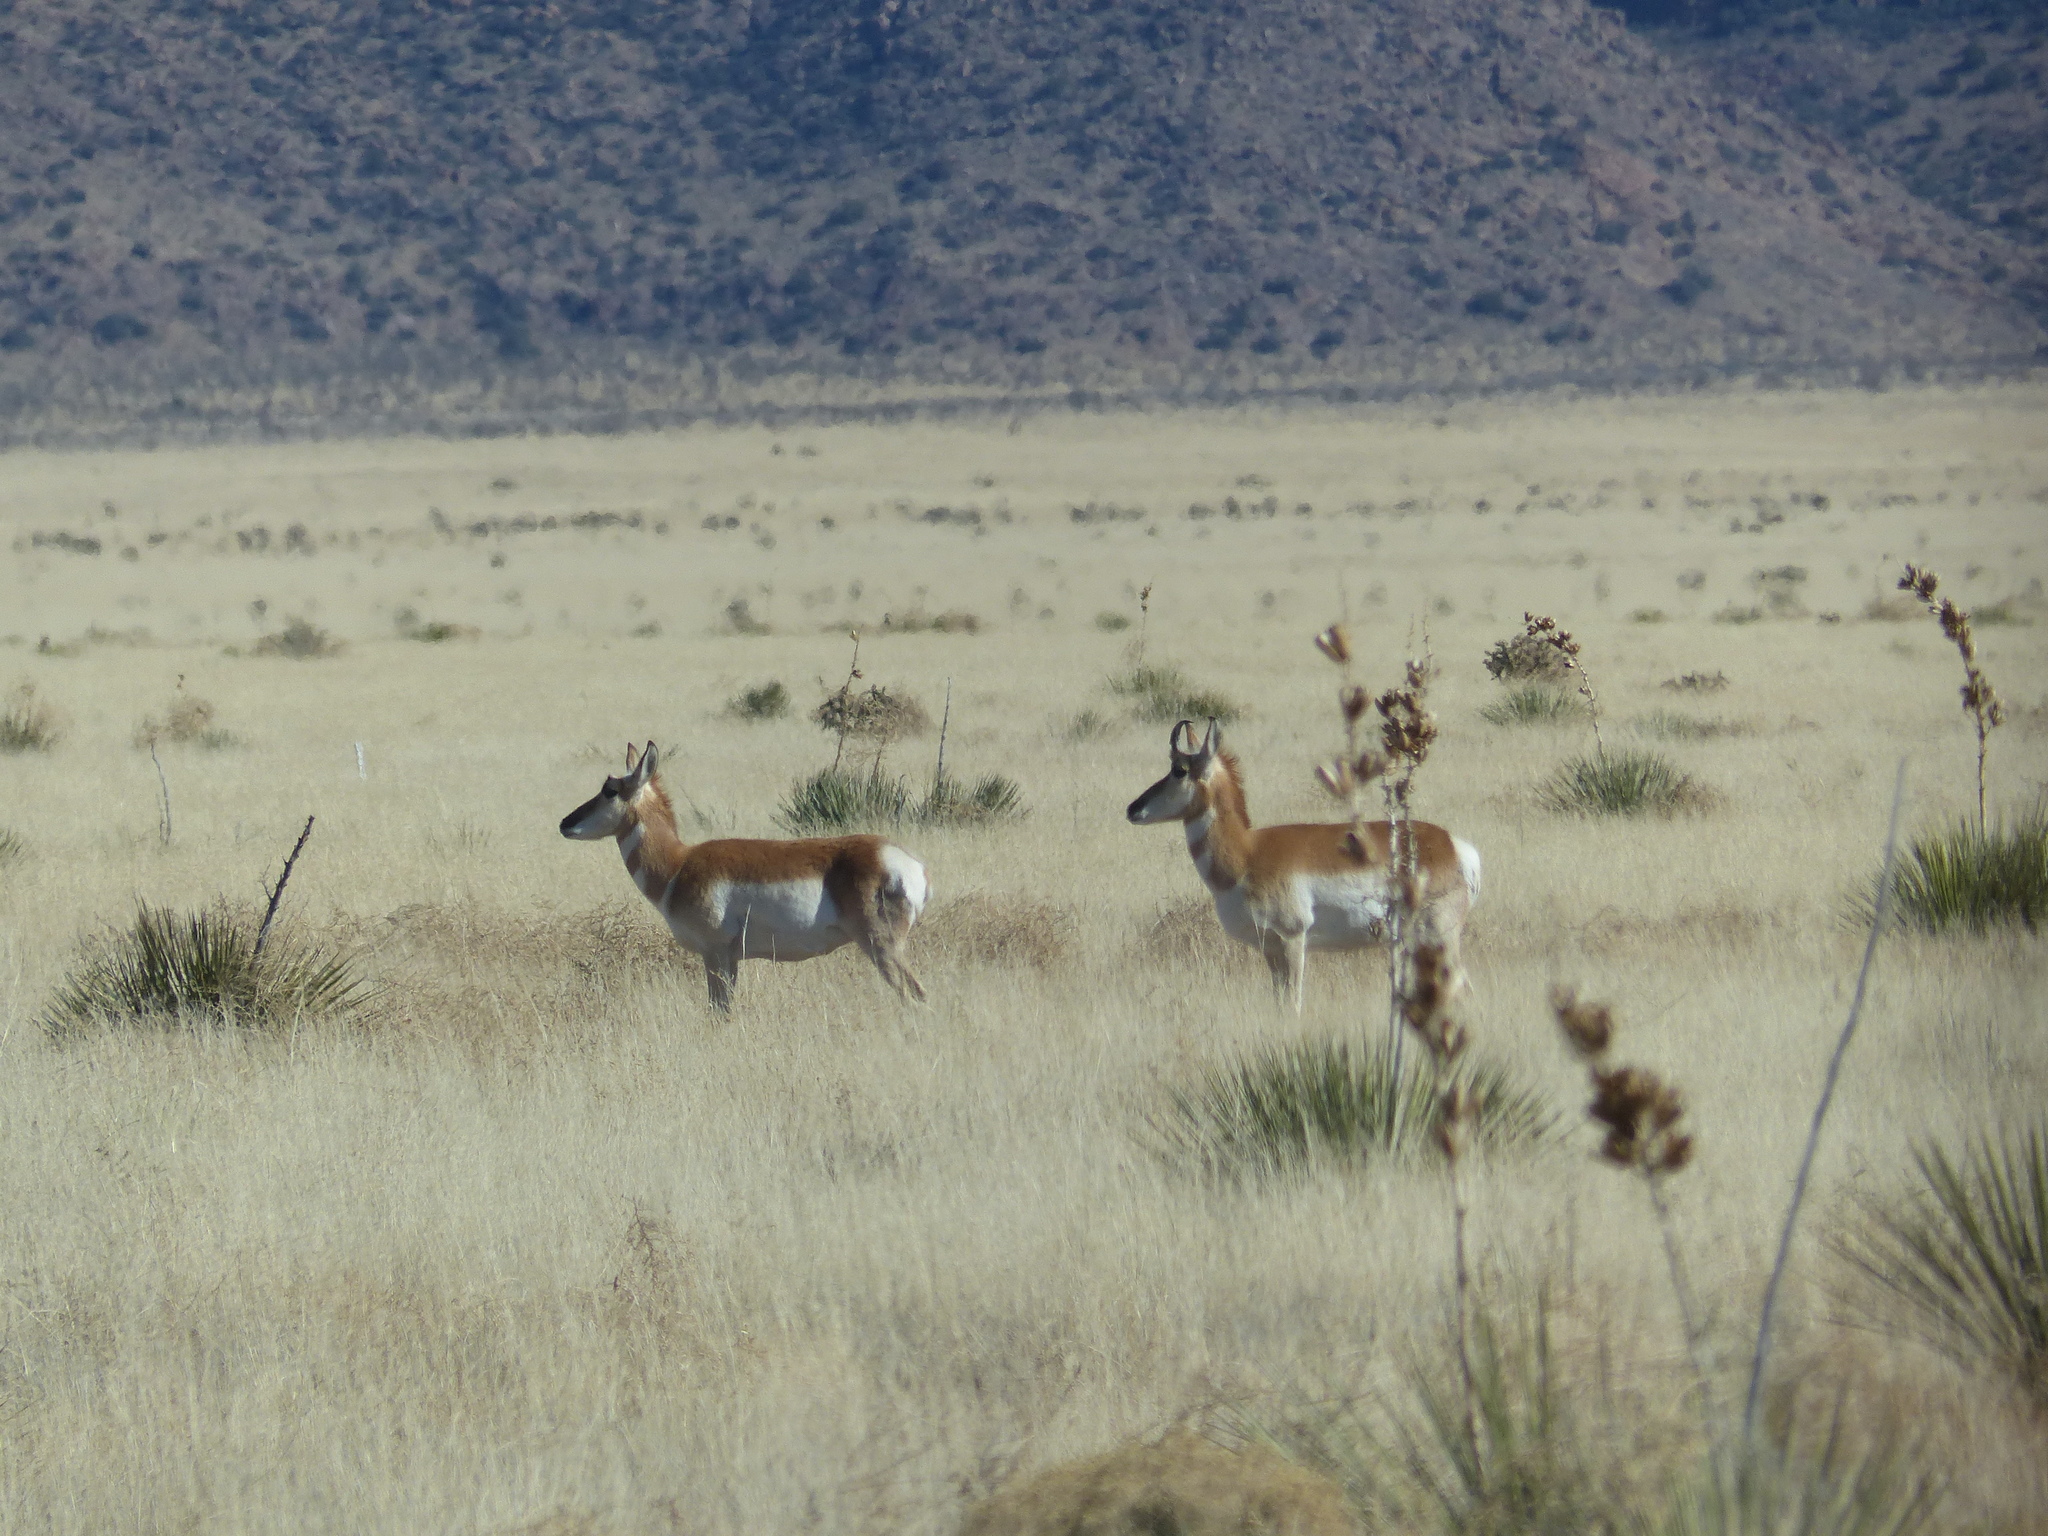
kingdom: Animalia
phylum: Chordata
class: Mammalia
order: Artiodactyla
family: Antilocapridae
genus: Antilocapra
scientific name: Antilocapra americana
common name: Pronghorn
